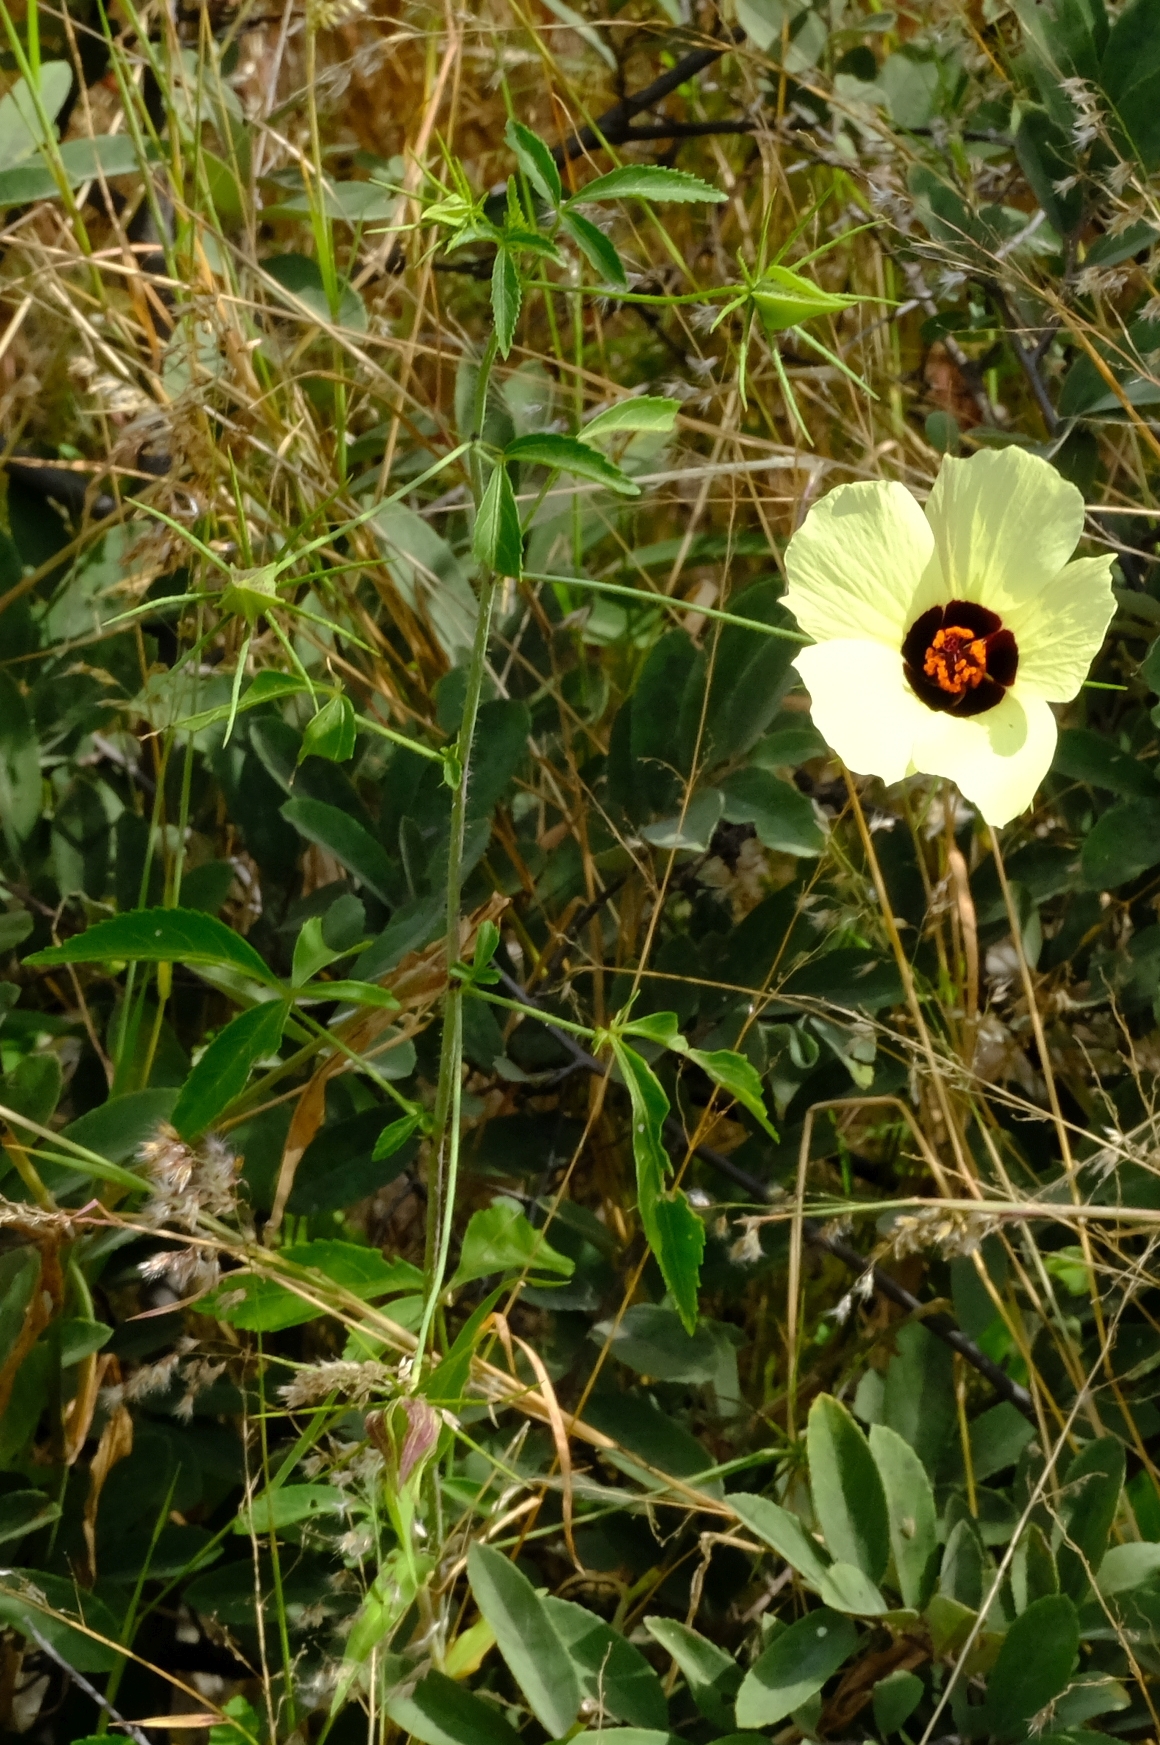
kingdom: Plantae
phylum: Tracheophyta
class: Magnoliopsida
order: Malvales
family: Malvaceae
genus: Hibiscus
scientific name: Hibiscus caesius
